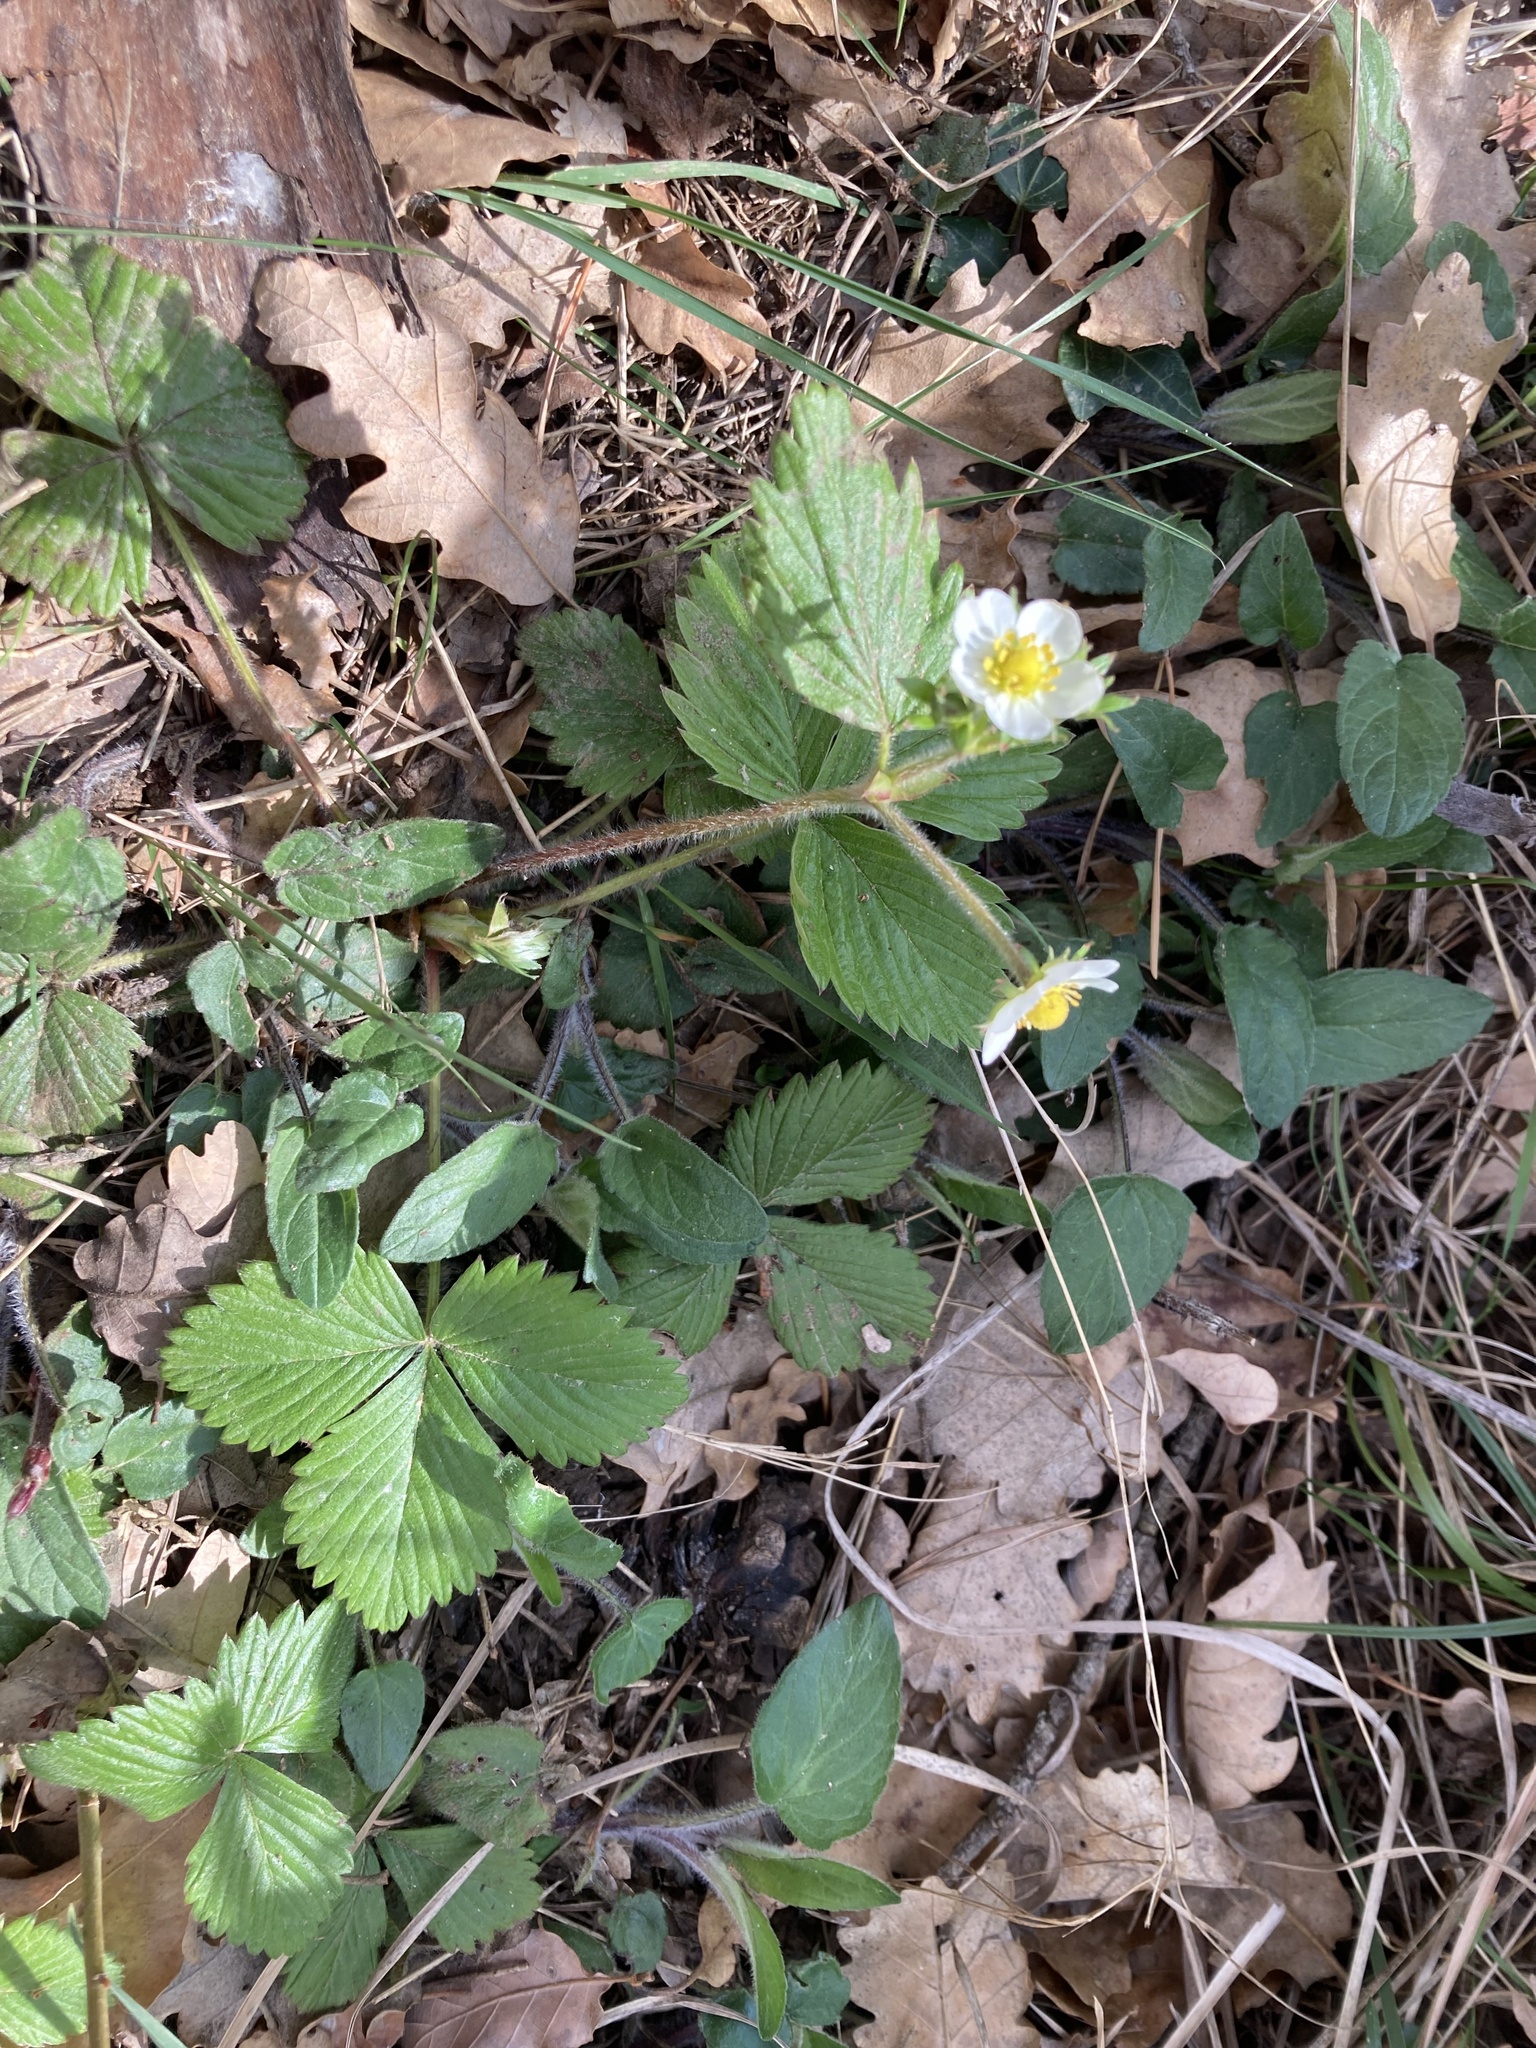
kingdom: Plantae
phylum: Tracheophyta
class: Magnoliopsida
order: Rosales
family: Rosaceae
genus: Fragaria
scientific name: Fragaria vesca
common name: Wild strawberry
